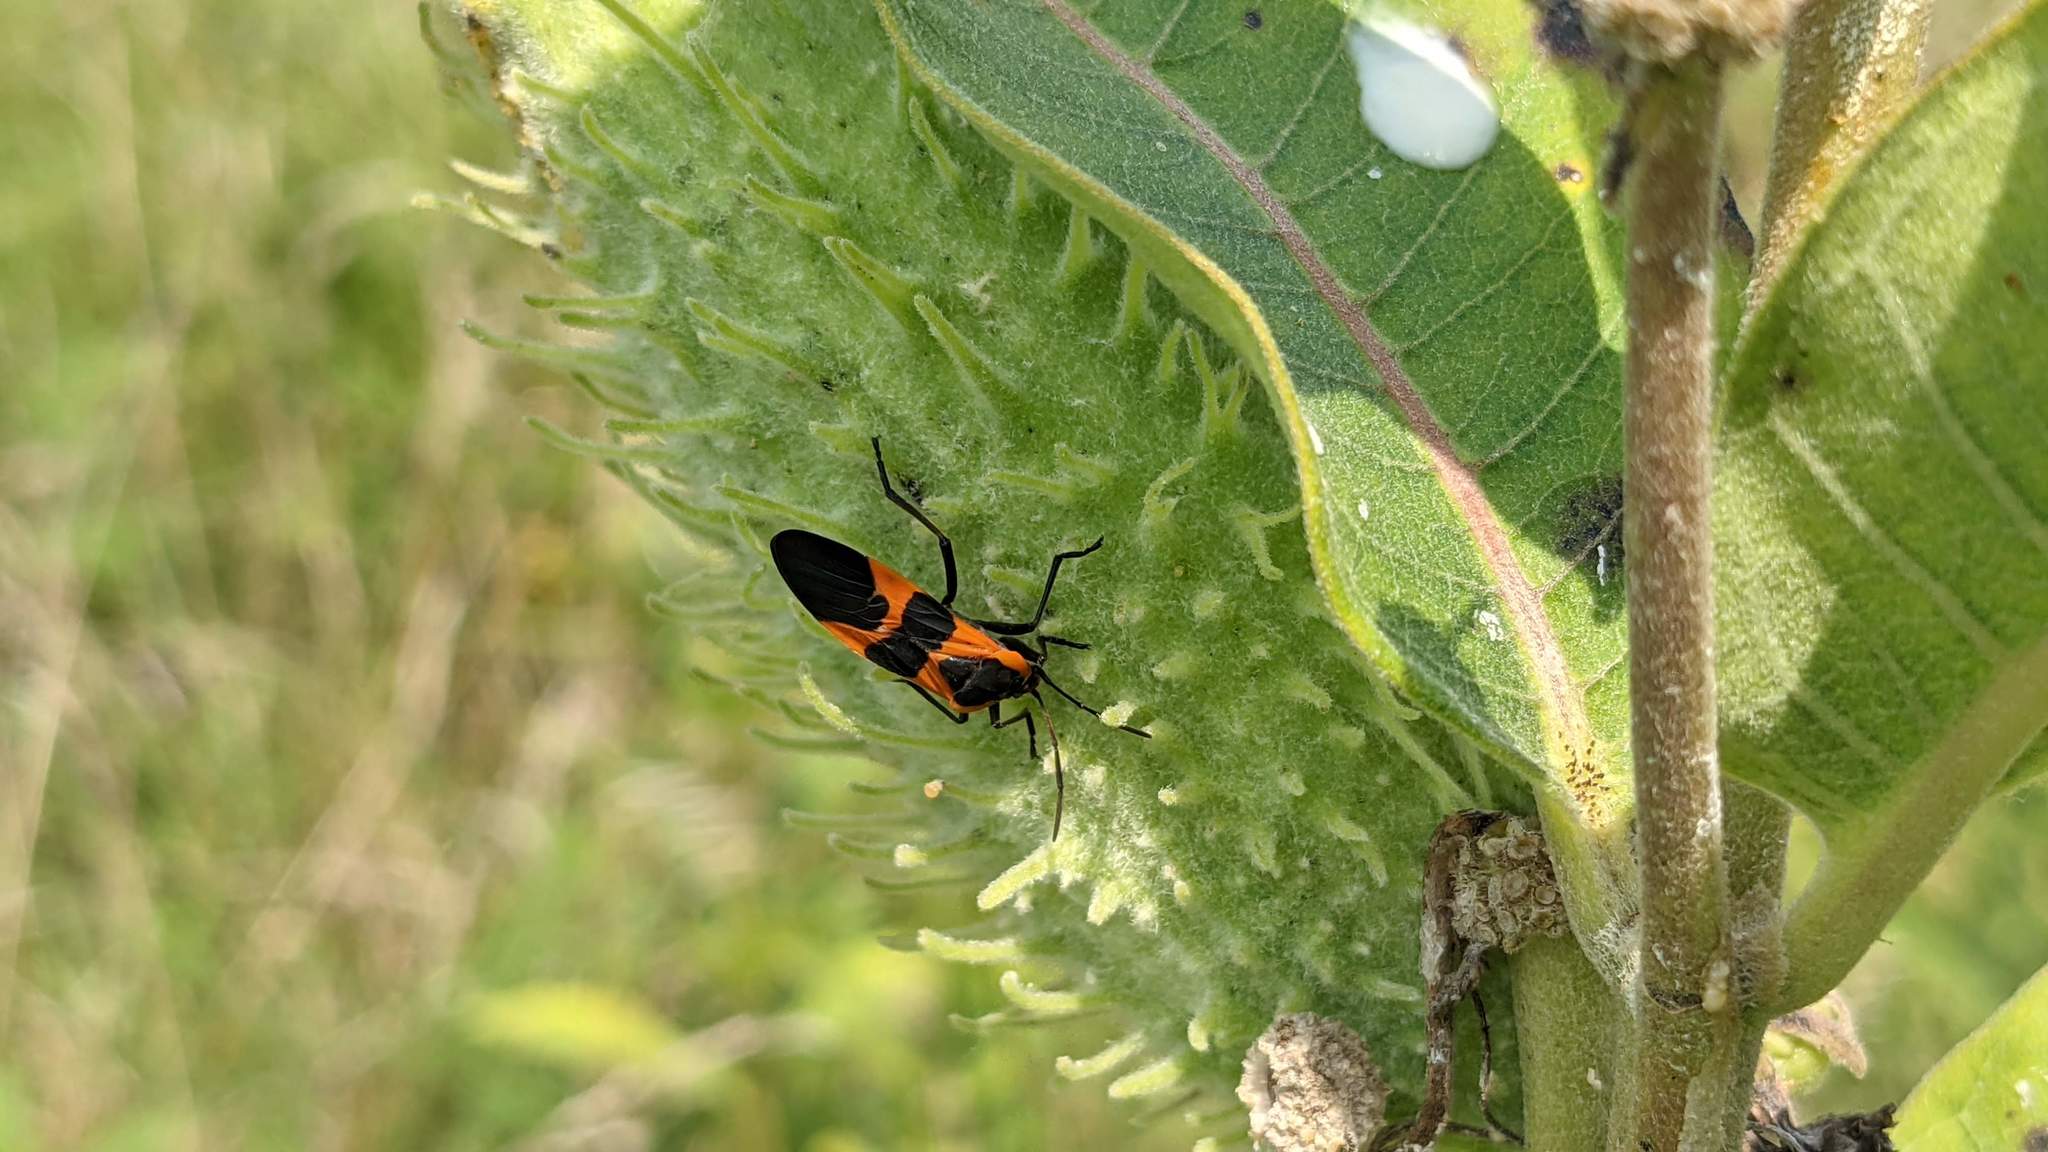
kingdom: Animalia
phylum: Arthropoda
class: Insecta
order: Hemiptera
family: Lygaeidae
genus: Oncopeltus
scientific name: Oncopeltus fasciatus
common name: Large milkweed bug
